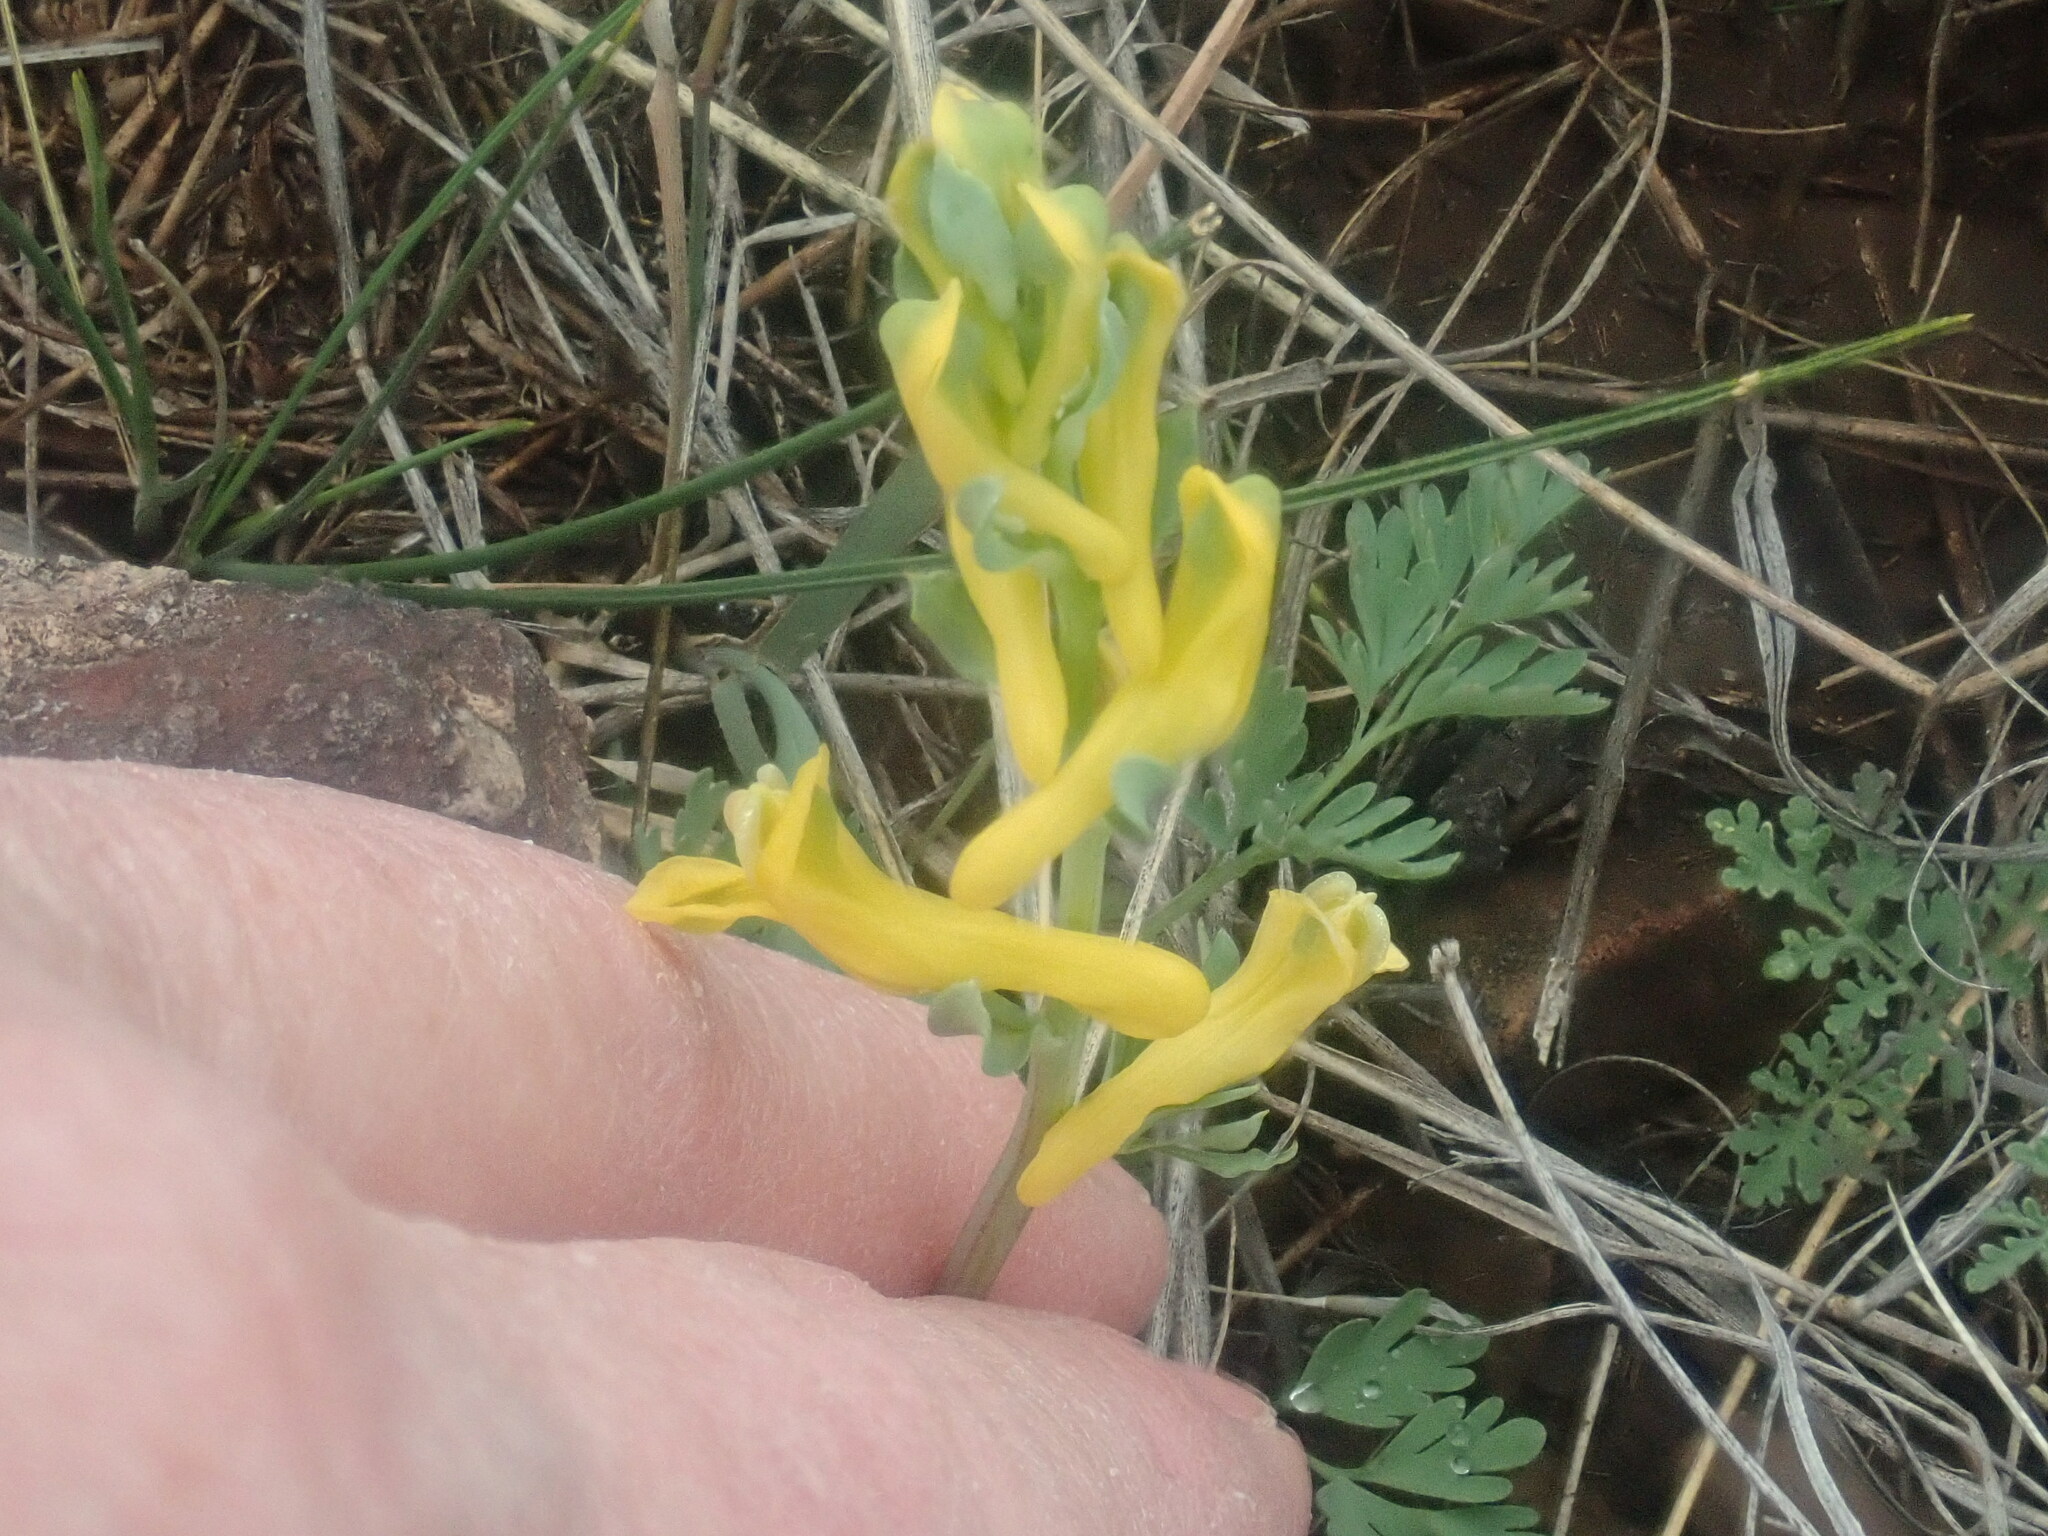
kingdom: Plantae
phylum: Tracheophyta
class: Magnoliopsida
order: Ranunculales
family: Papaveraceae
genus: Corydalis
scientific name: Corydalis aurea
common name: Golden corydalis
